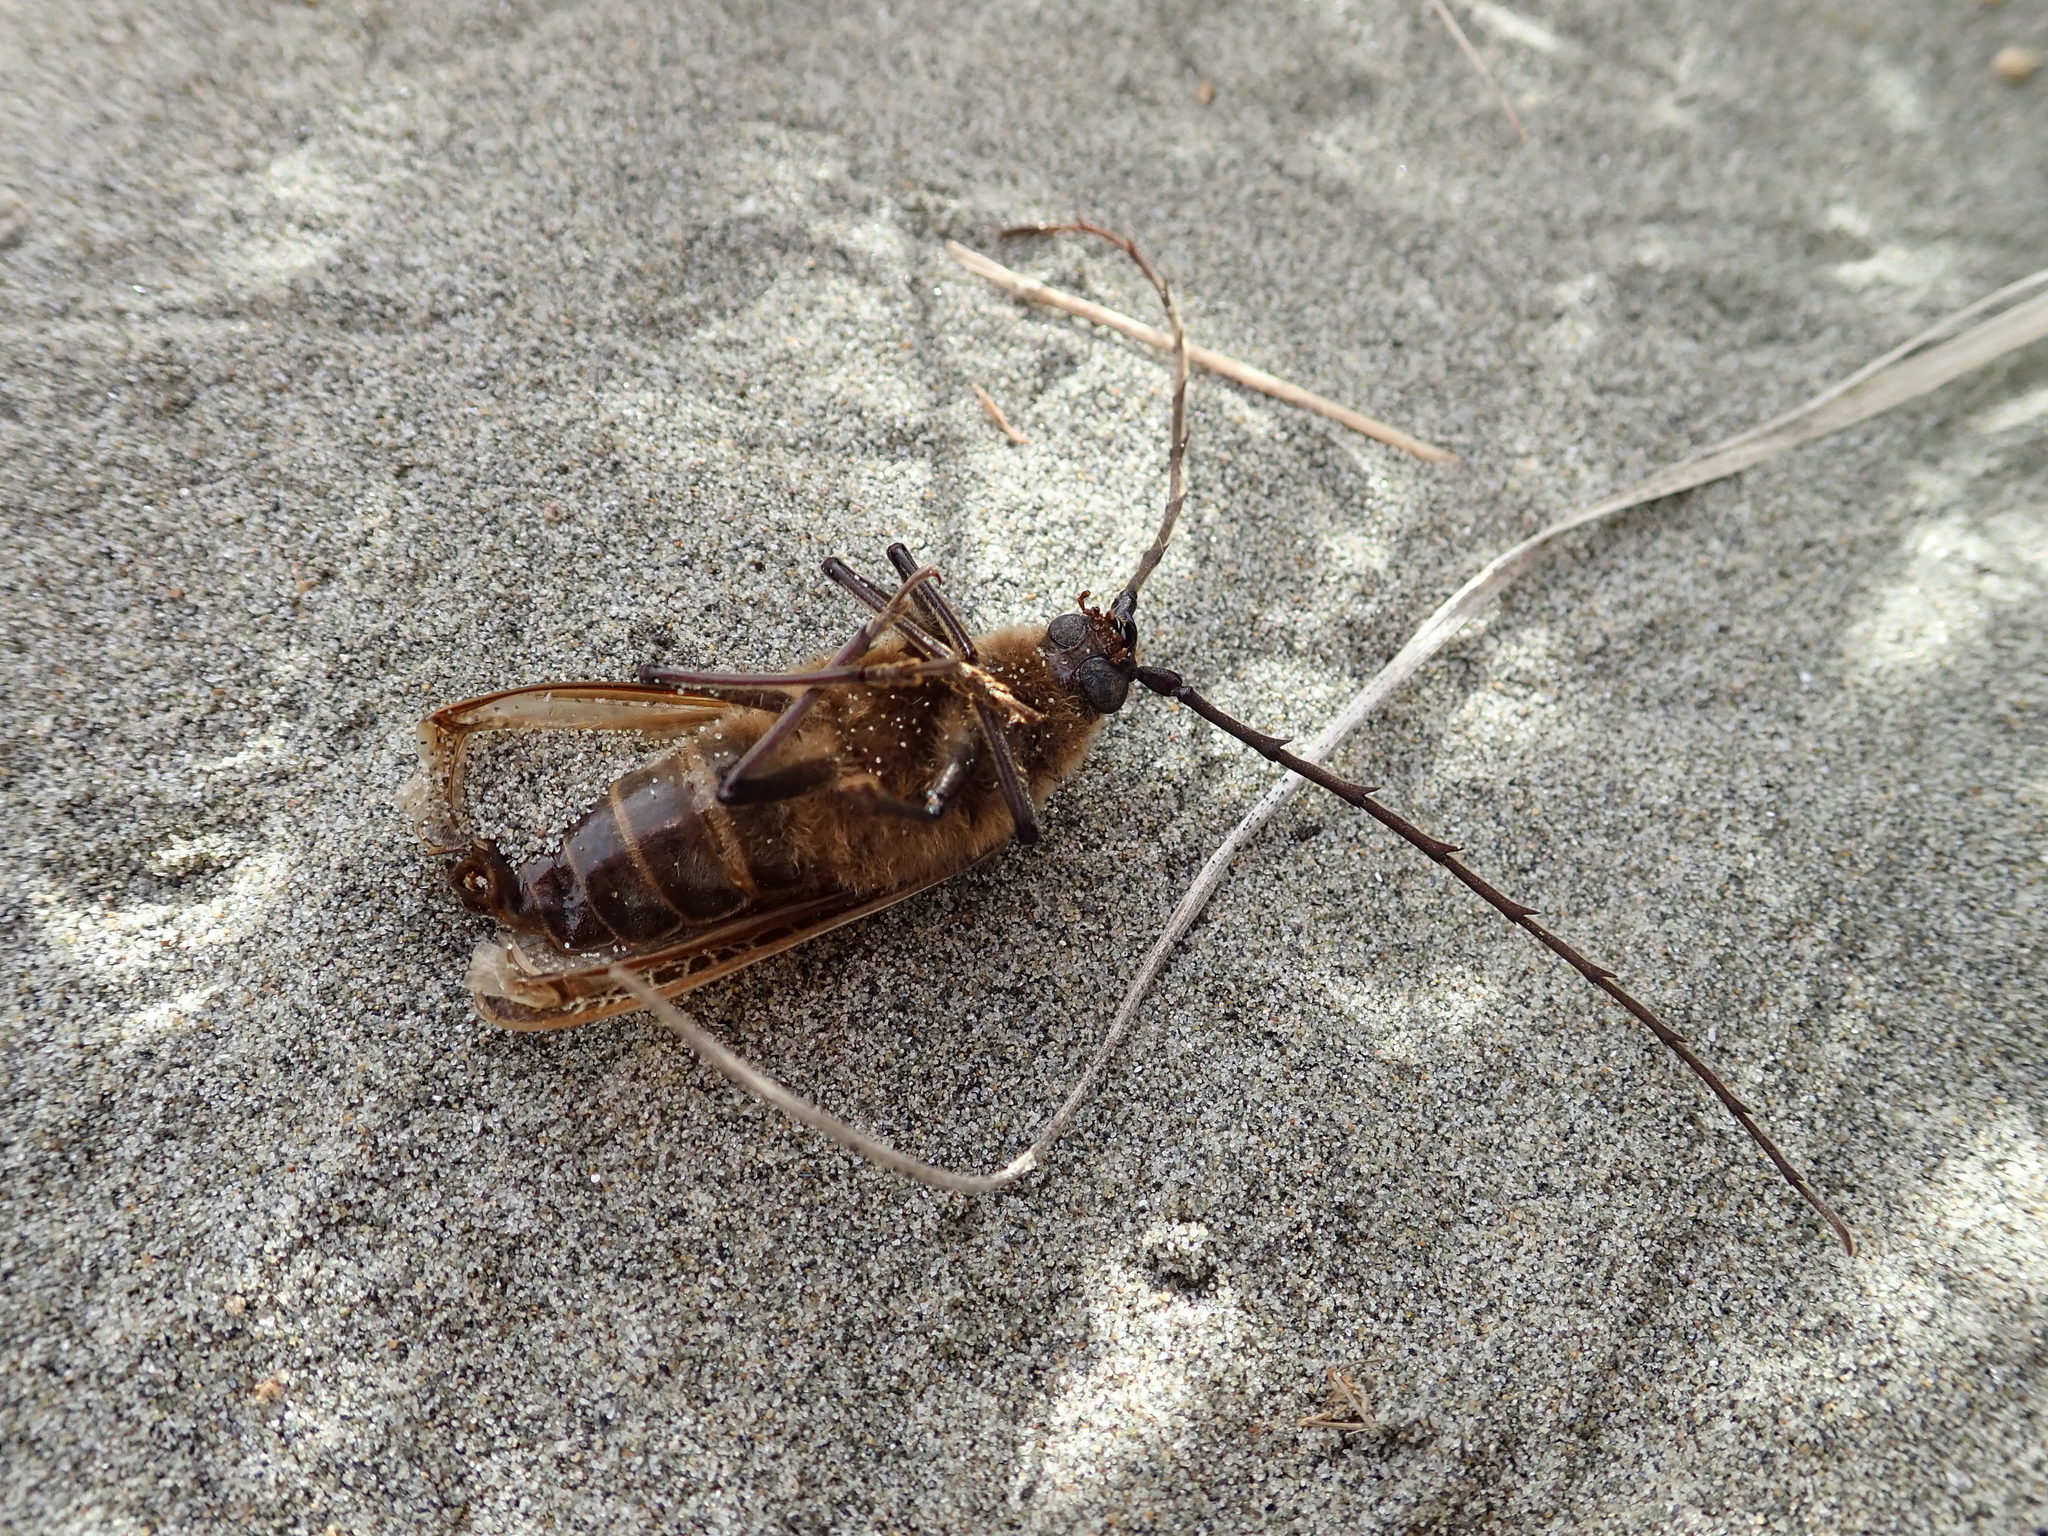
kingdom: Animalia
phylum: Arthropoda
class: Insecta
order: Coleoptera
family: Cerambycidae
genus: Prionoplus
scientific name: Prionoplus reticularis
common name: Huhu beetle
